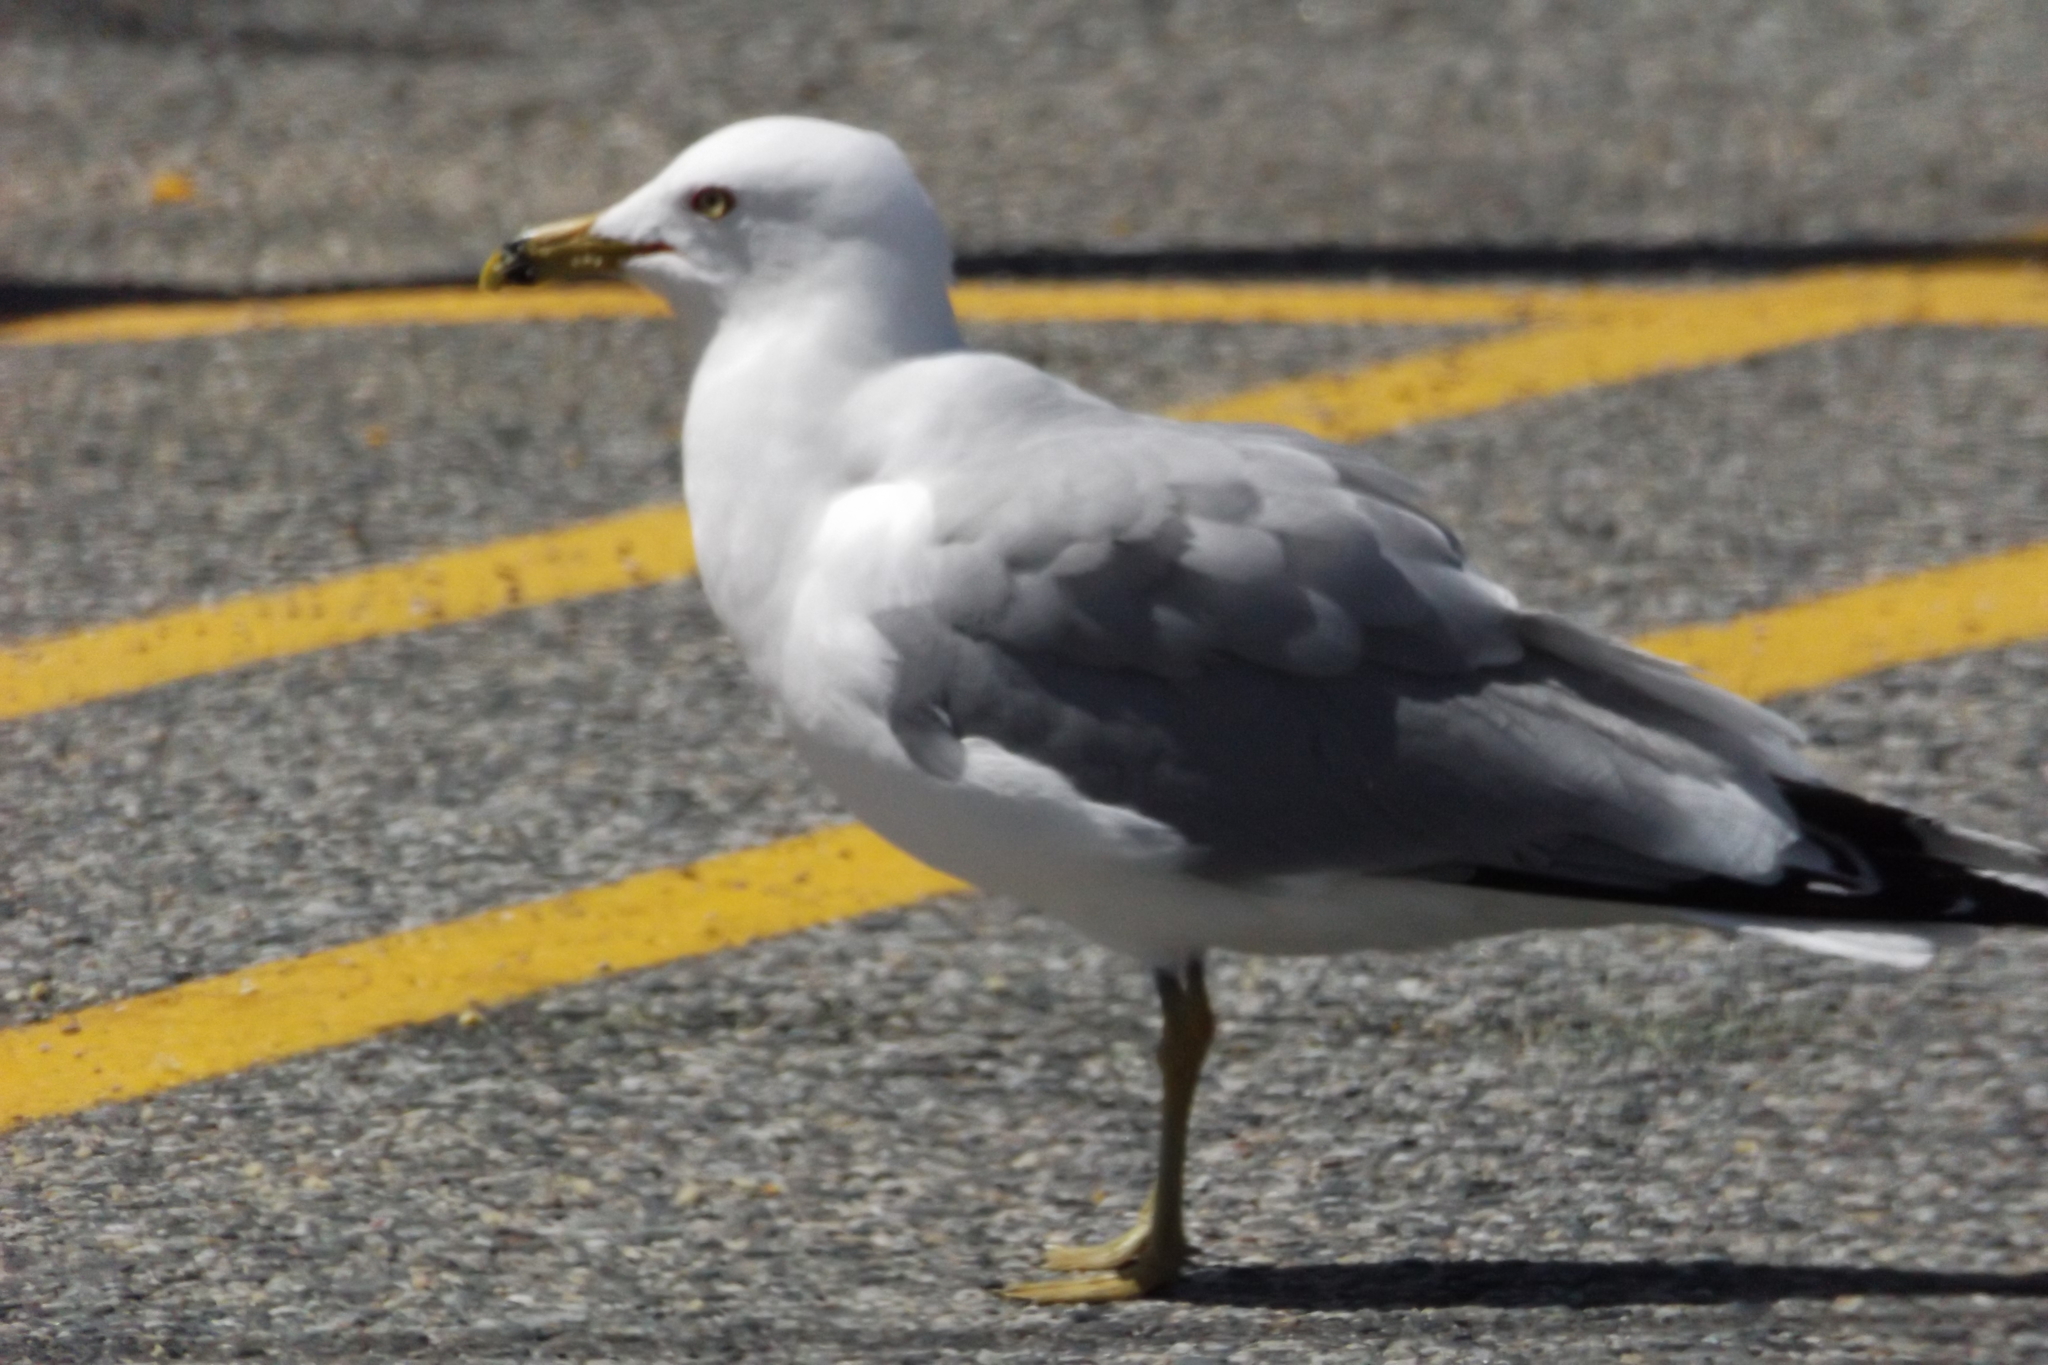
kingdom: Animalia
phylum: Chordata
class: Aves
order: Charadriiformes
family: Laridae
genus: Larus
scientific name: Larus delawarensis
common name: Ring-billed gull
